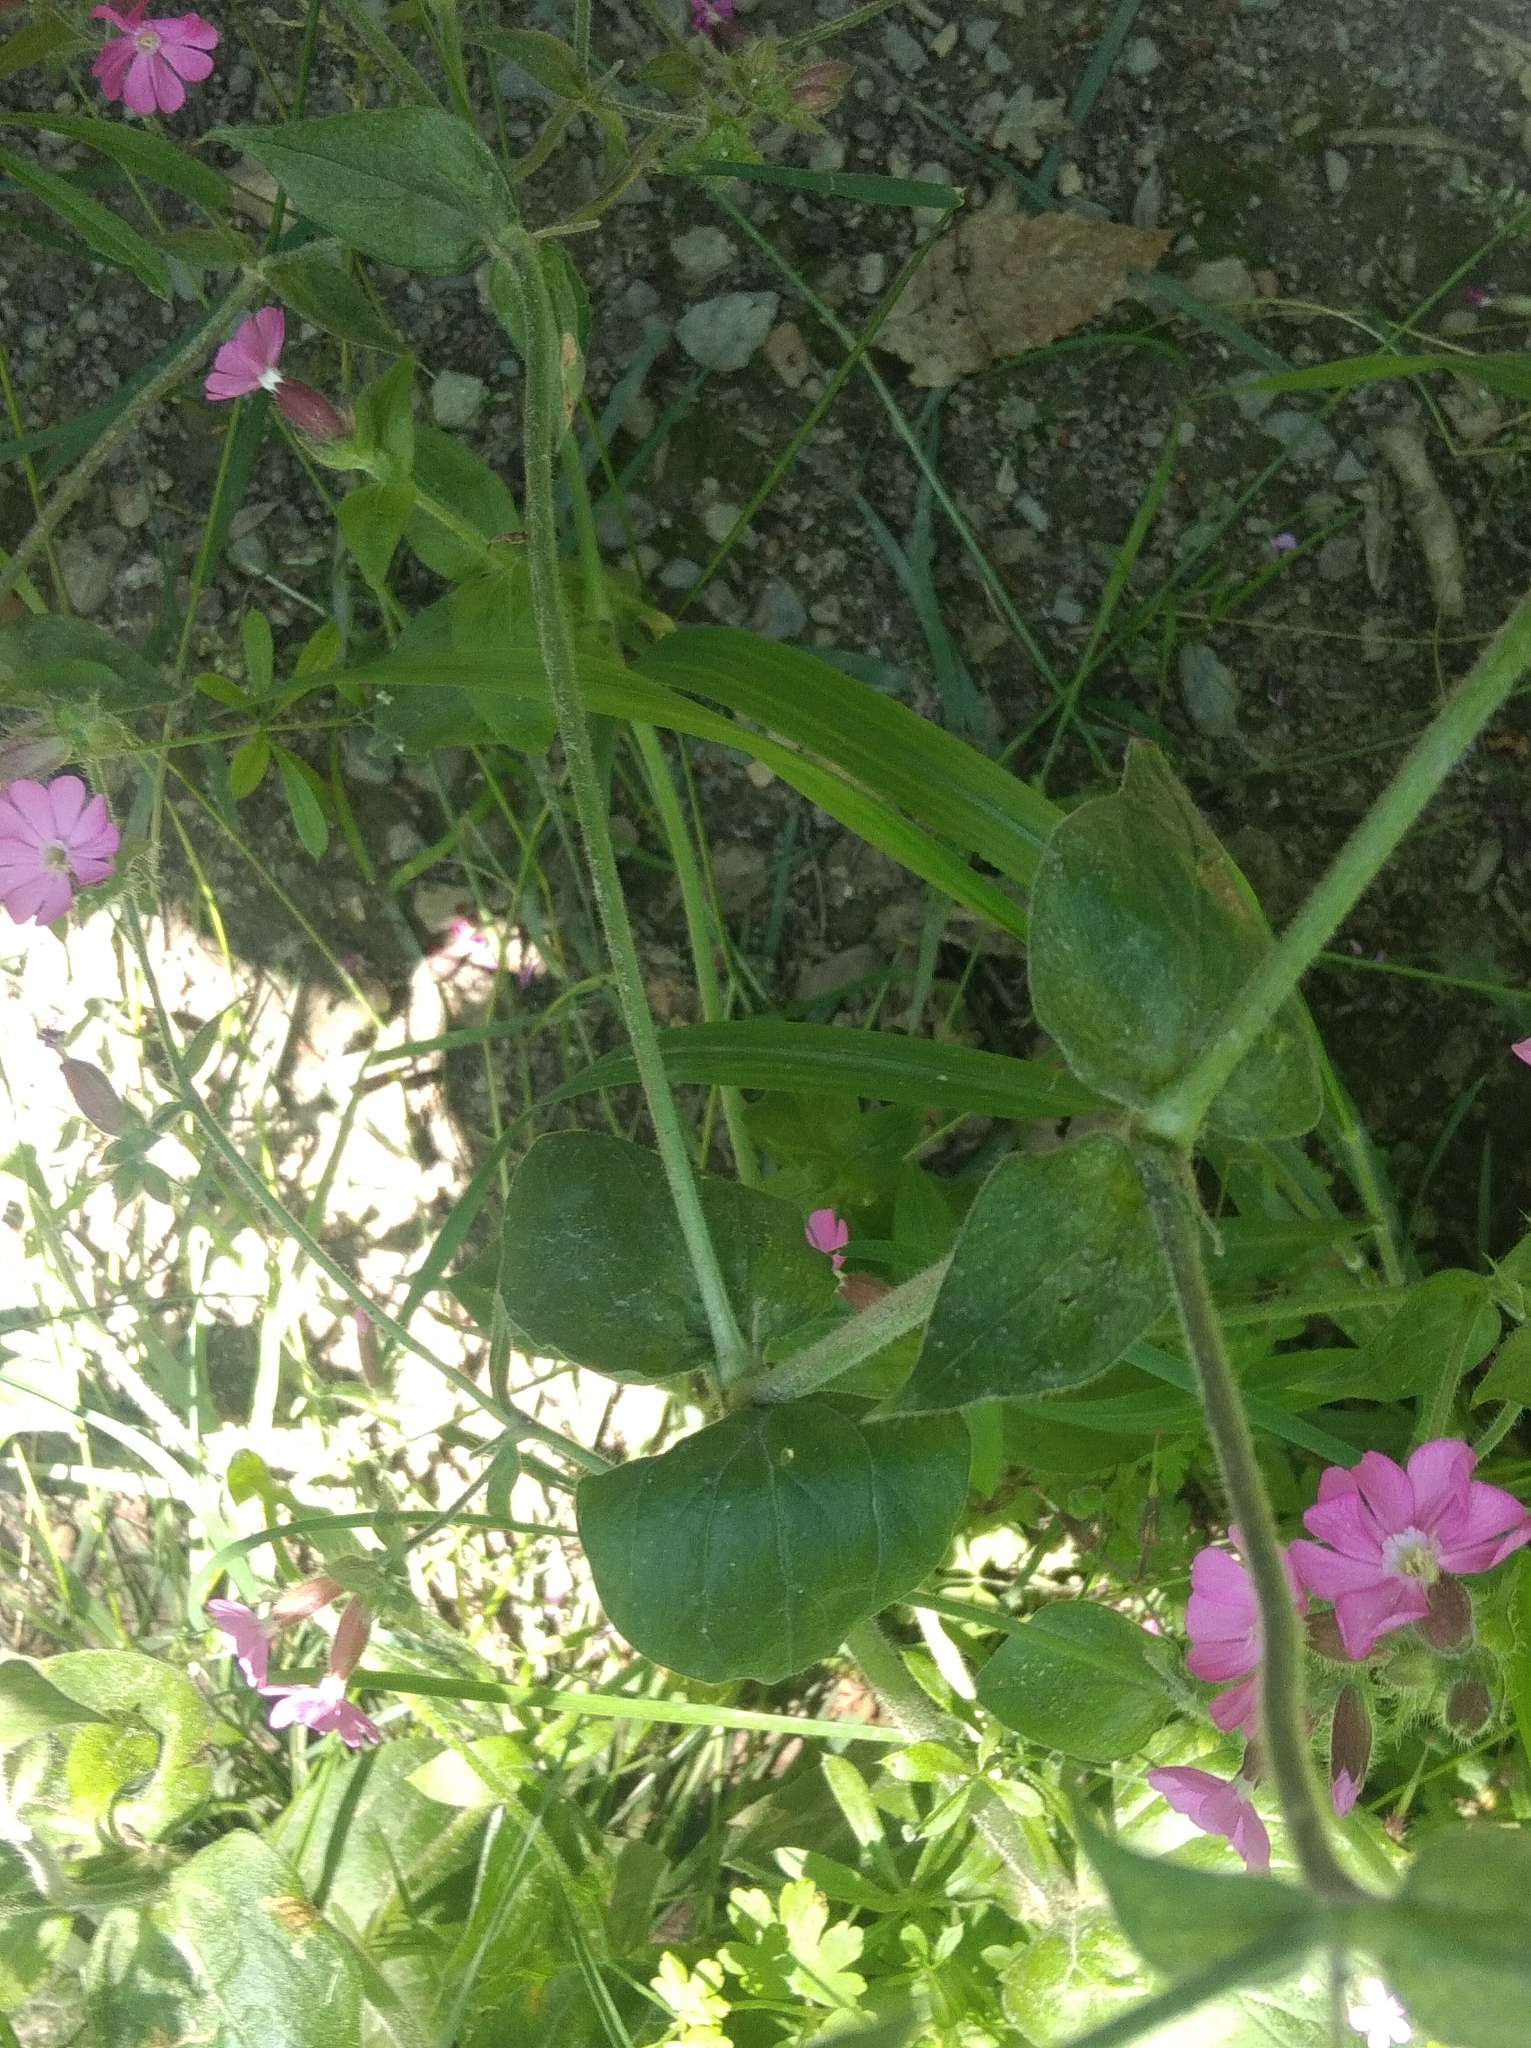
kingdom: Plantae
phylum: Tracheophyta
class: Magnoliopsida
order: Caryophyllales
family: Caryophyllaceae
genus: Silene
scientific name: Silene dioica
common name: Red campion
